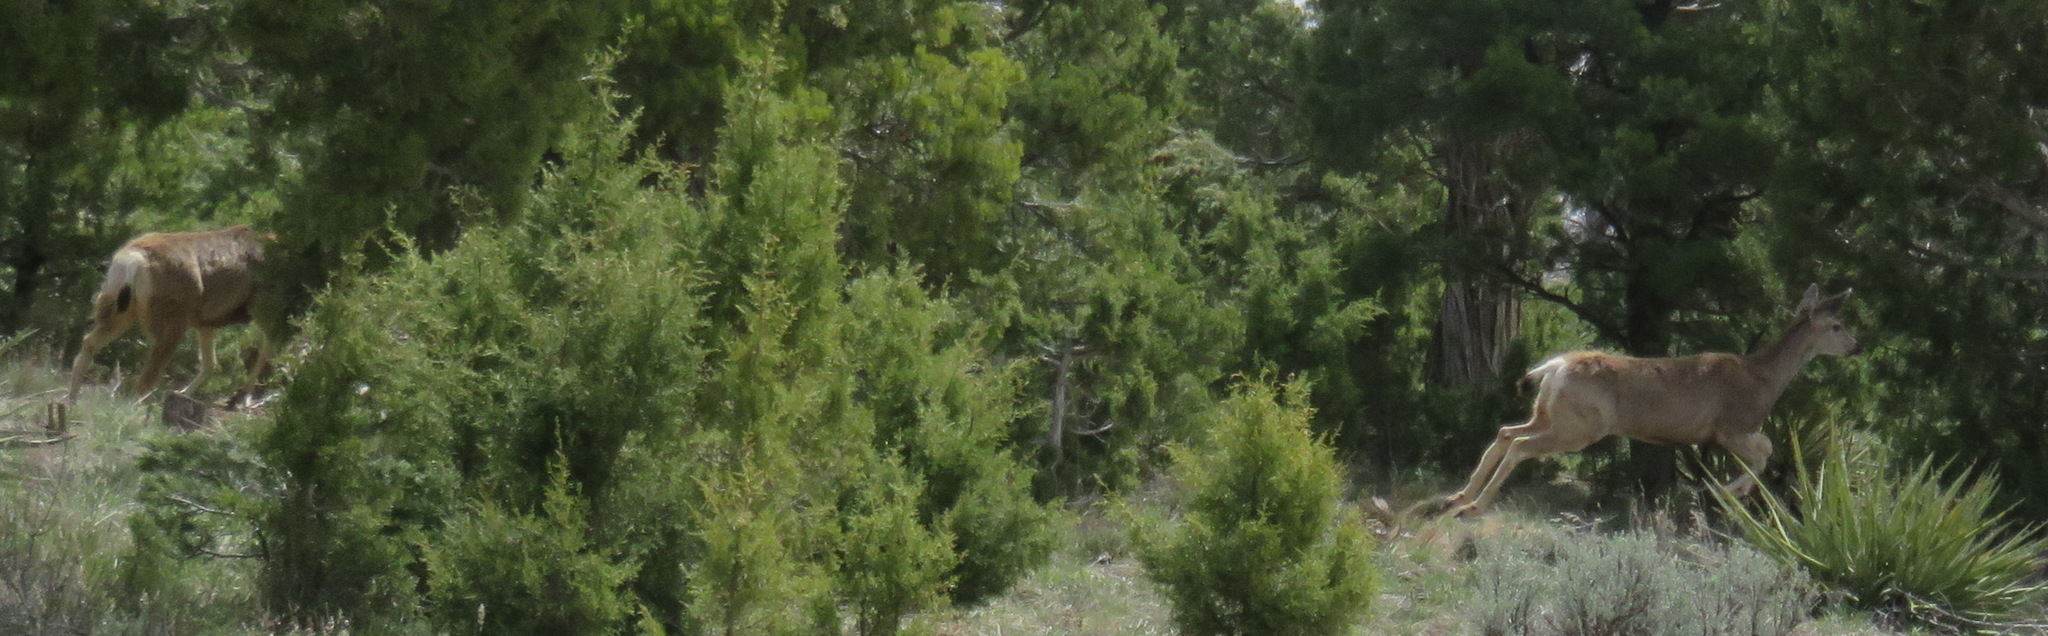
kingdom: Animalia
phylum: Chordata
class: Mammalia
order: Artiodactyla
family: Cervidae
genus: Odocoileus
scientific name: Odocoileus hemionus
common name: Mule deer
